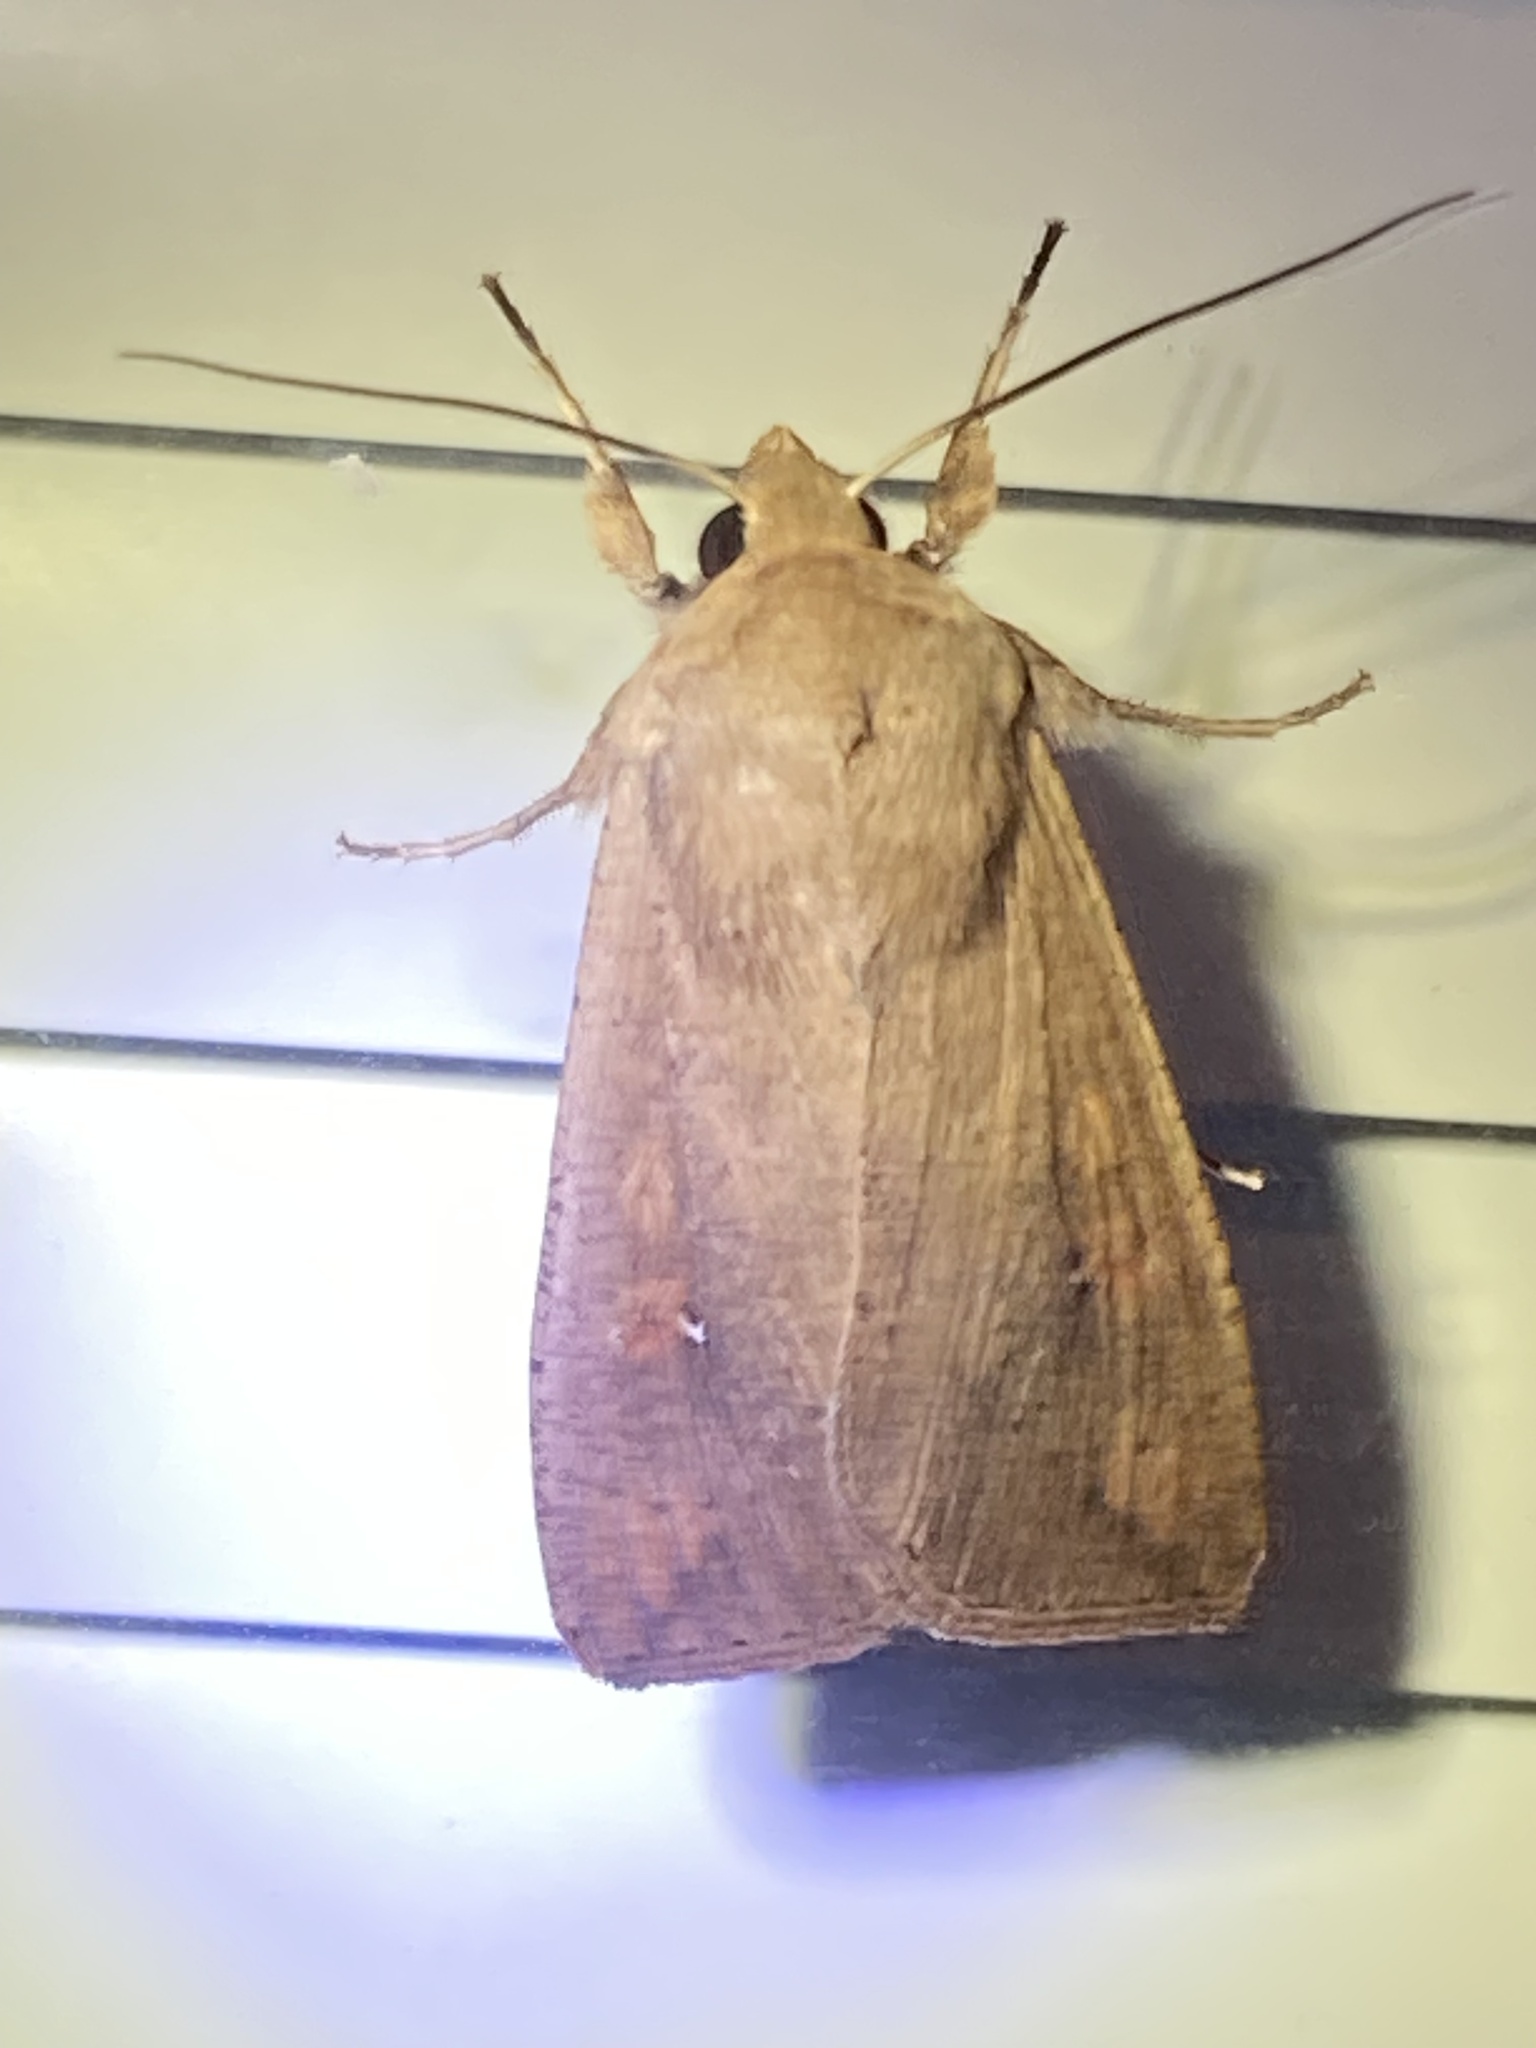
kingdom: Animalia
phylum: Arthropoda
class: Insecta
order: Lepidoptera
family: Noctuidae
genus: Mythimna
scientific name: Mythimna unipuncta
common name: White-speck
